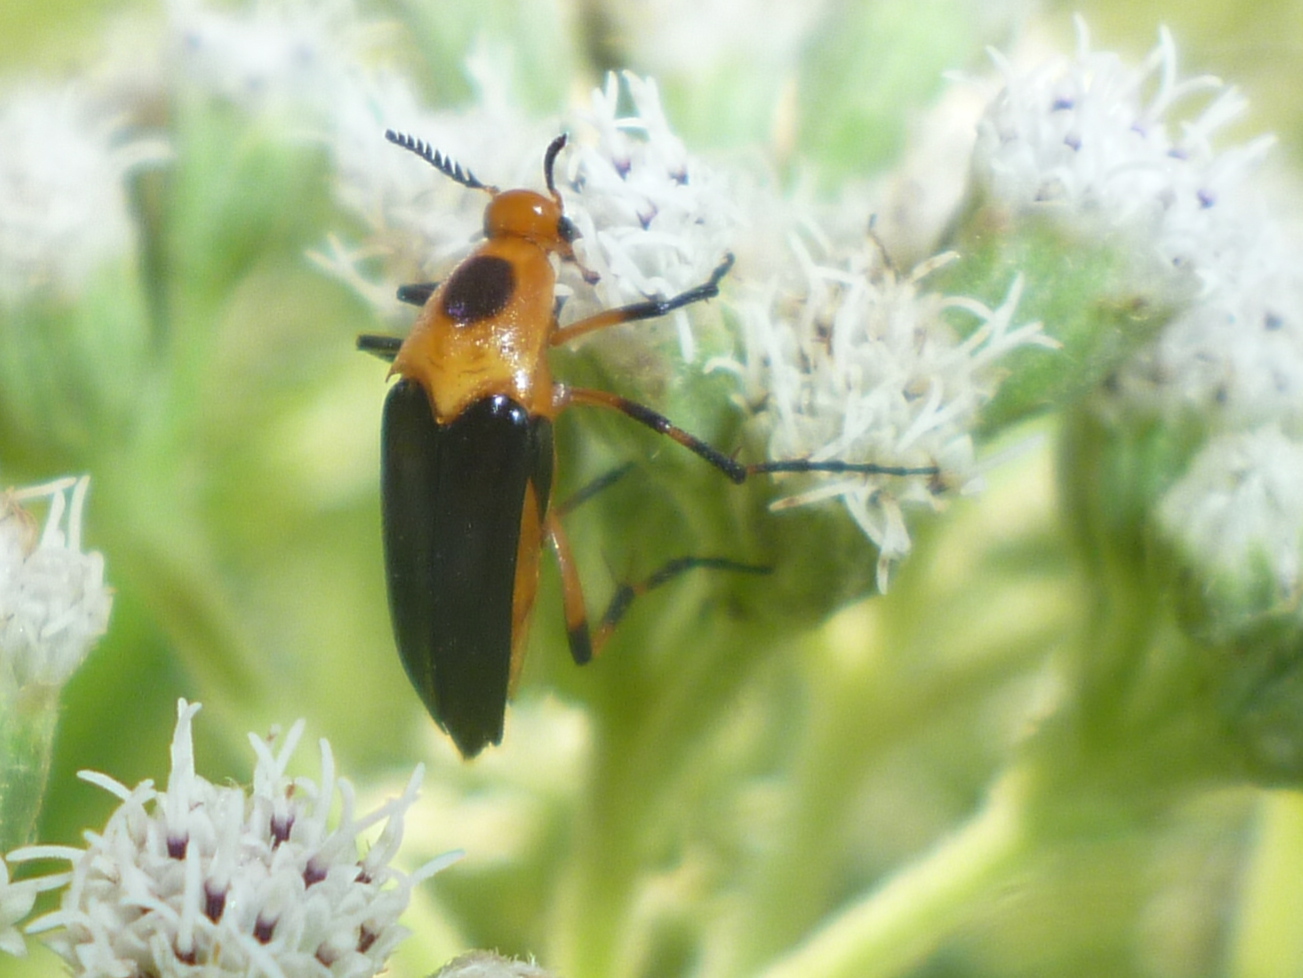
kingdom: Animalia
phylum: Arthropoda
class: Insecta
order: Coleoptera
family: Ripiphoridae
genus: Macrosiagon
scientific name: Macrosiagon limbatum
